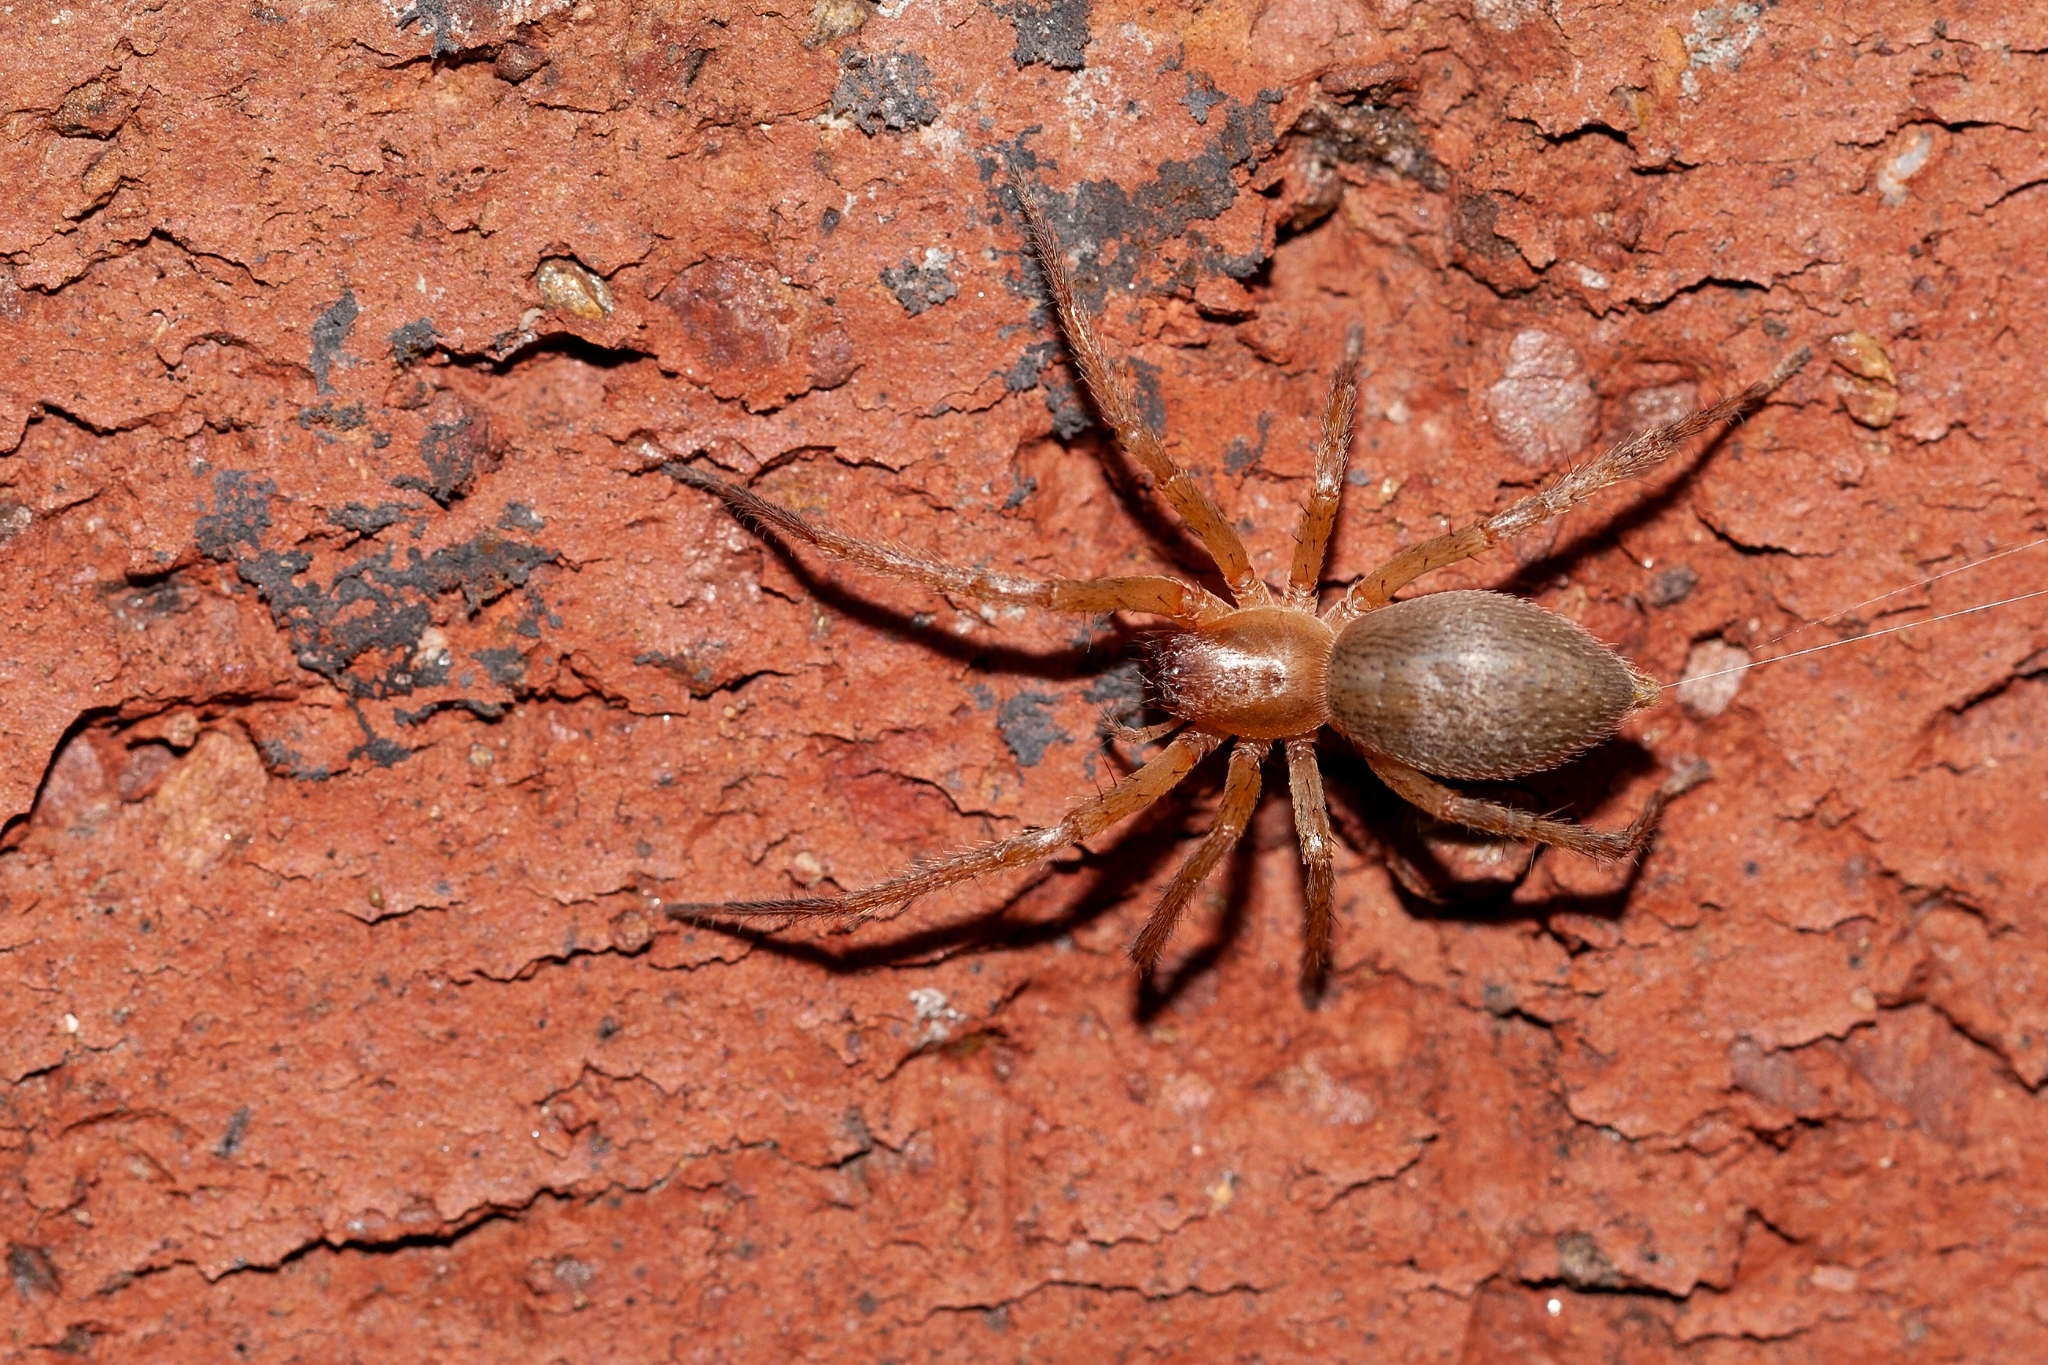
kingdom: Animalia
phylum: Arthropoda
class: Arachnida
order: Araneae
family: Anyphaenidae
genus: Hibana
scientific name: Hibana velox
